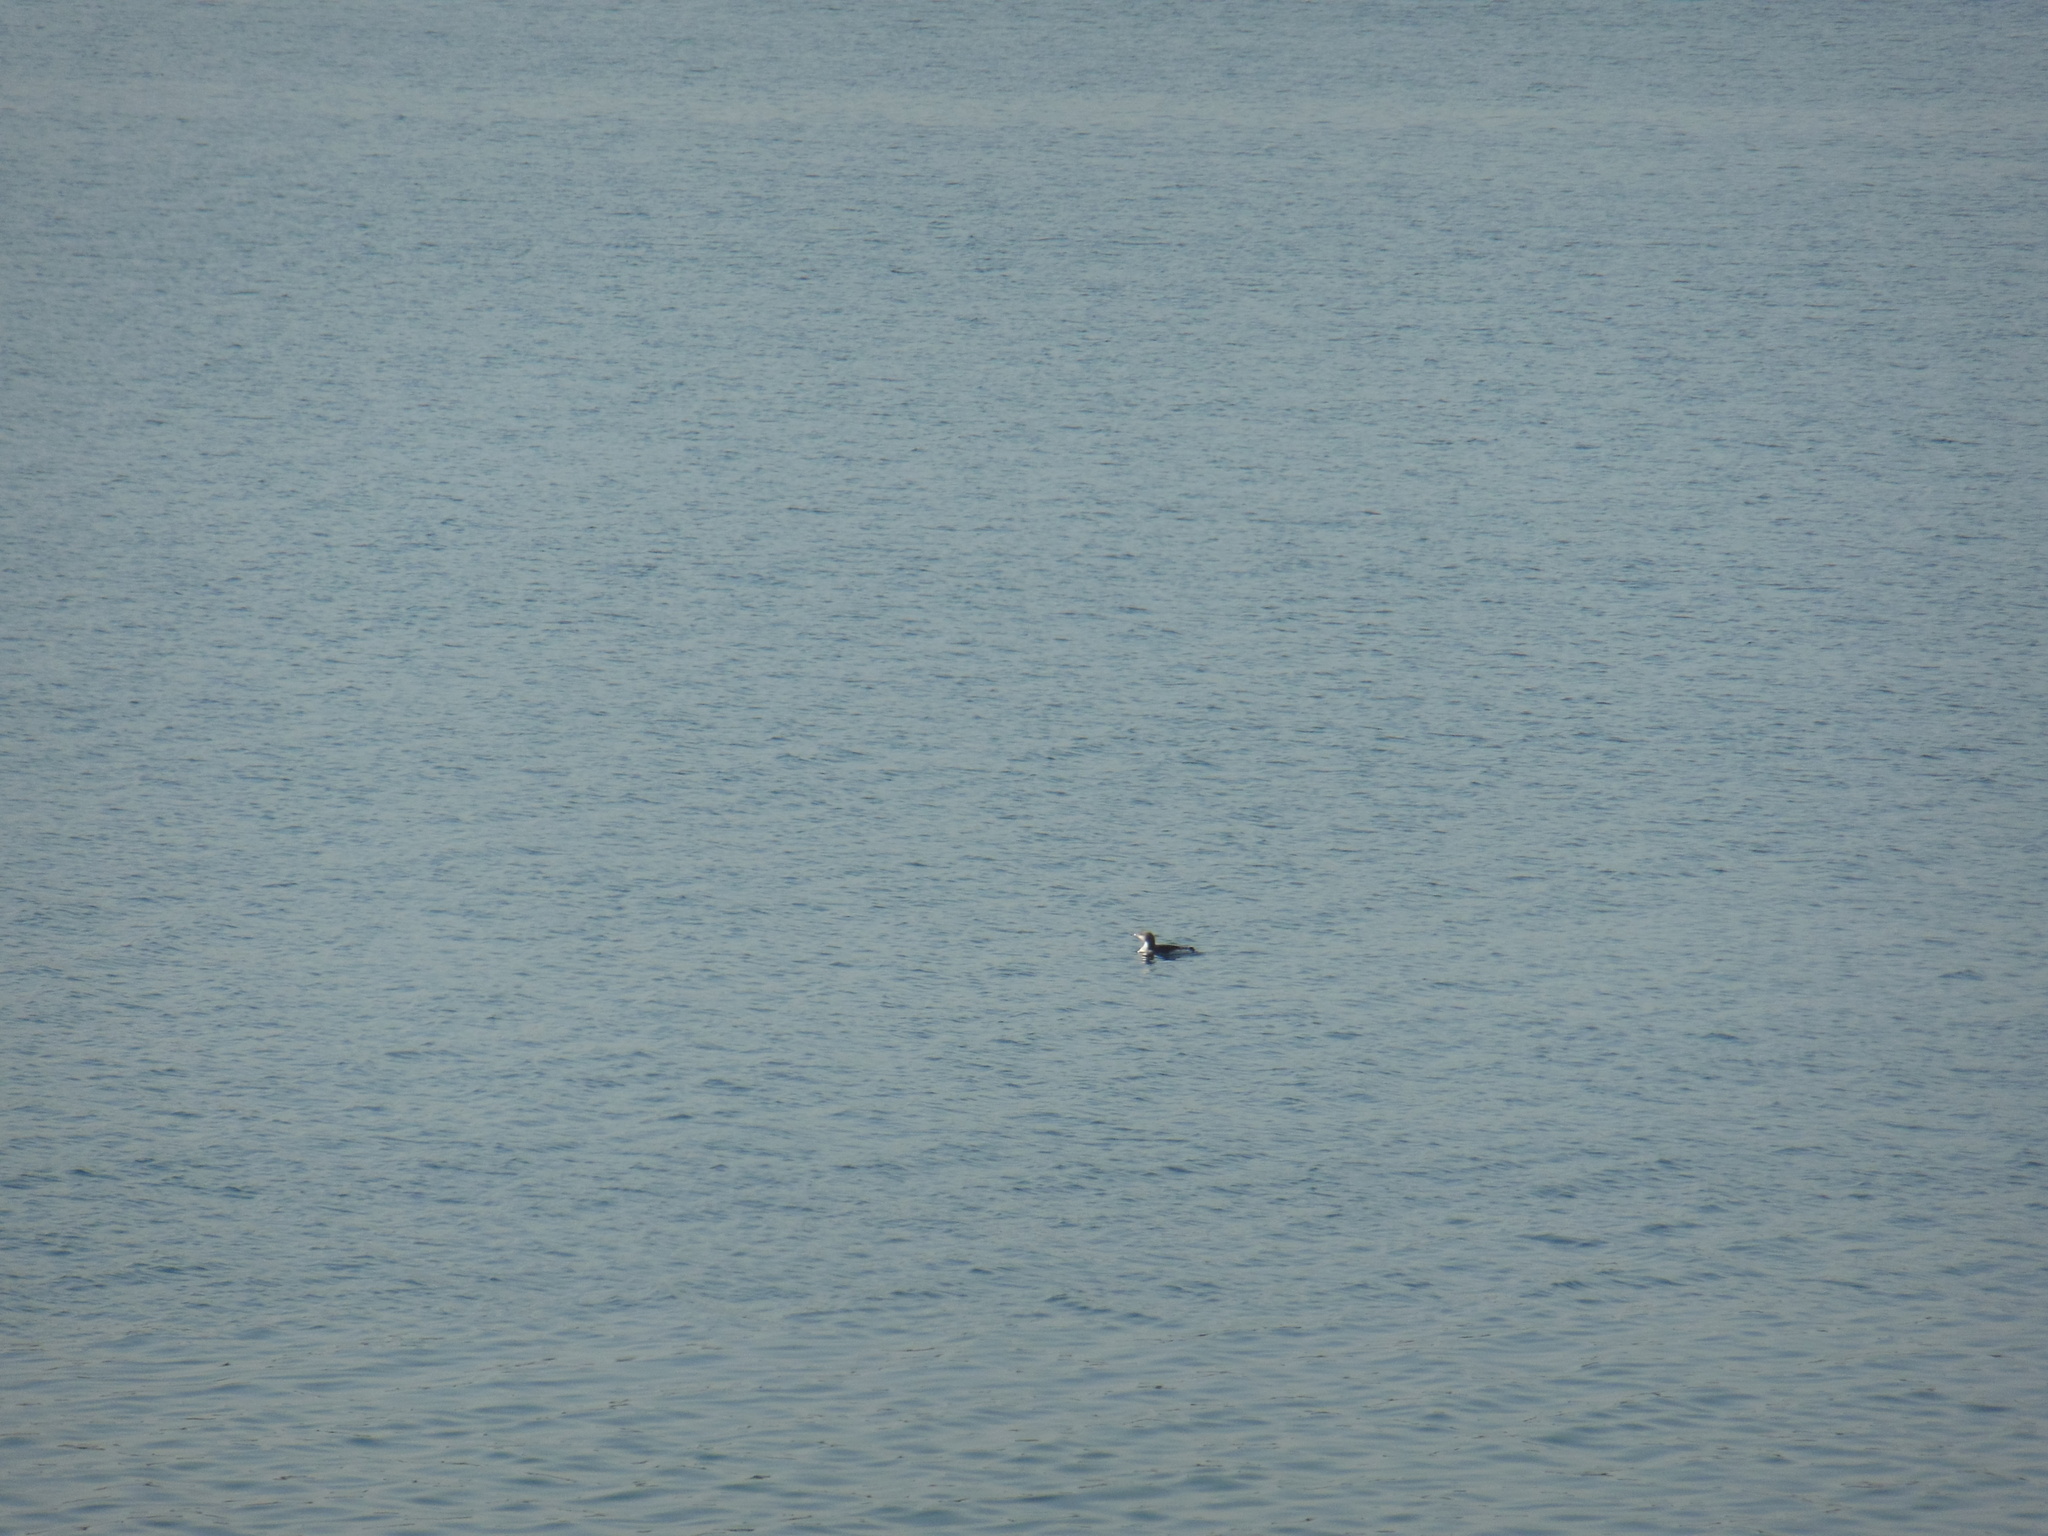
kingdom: Animalia
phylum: Chordata
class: Aves
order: Gaviiformes
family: Gaviidae
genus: Gavia
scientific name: Gavia arctica
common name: Black-throated loon
